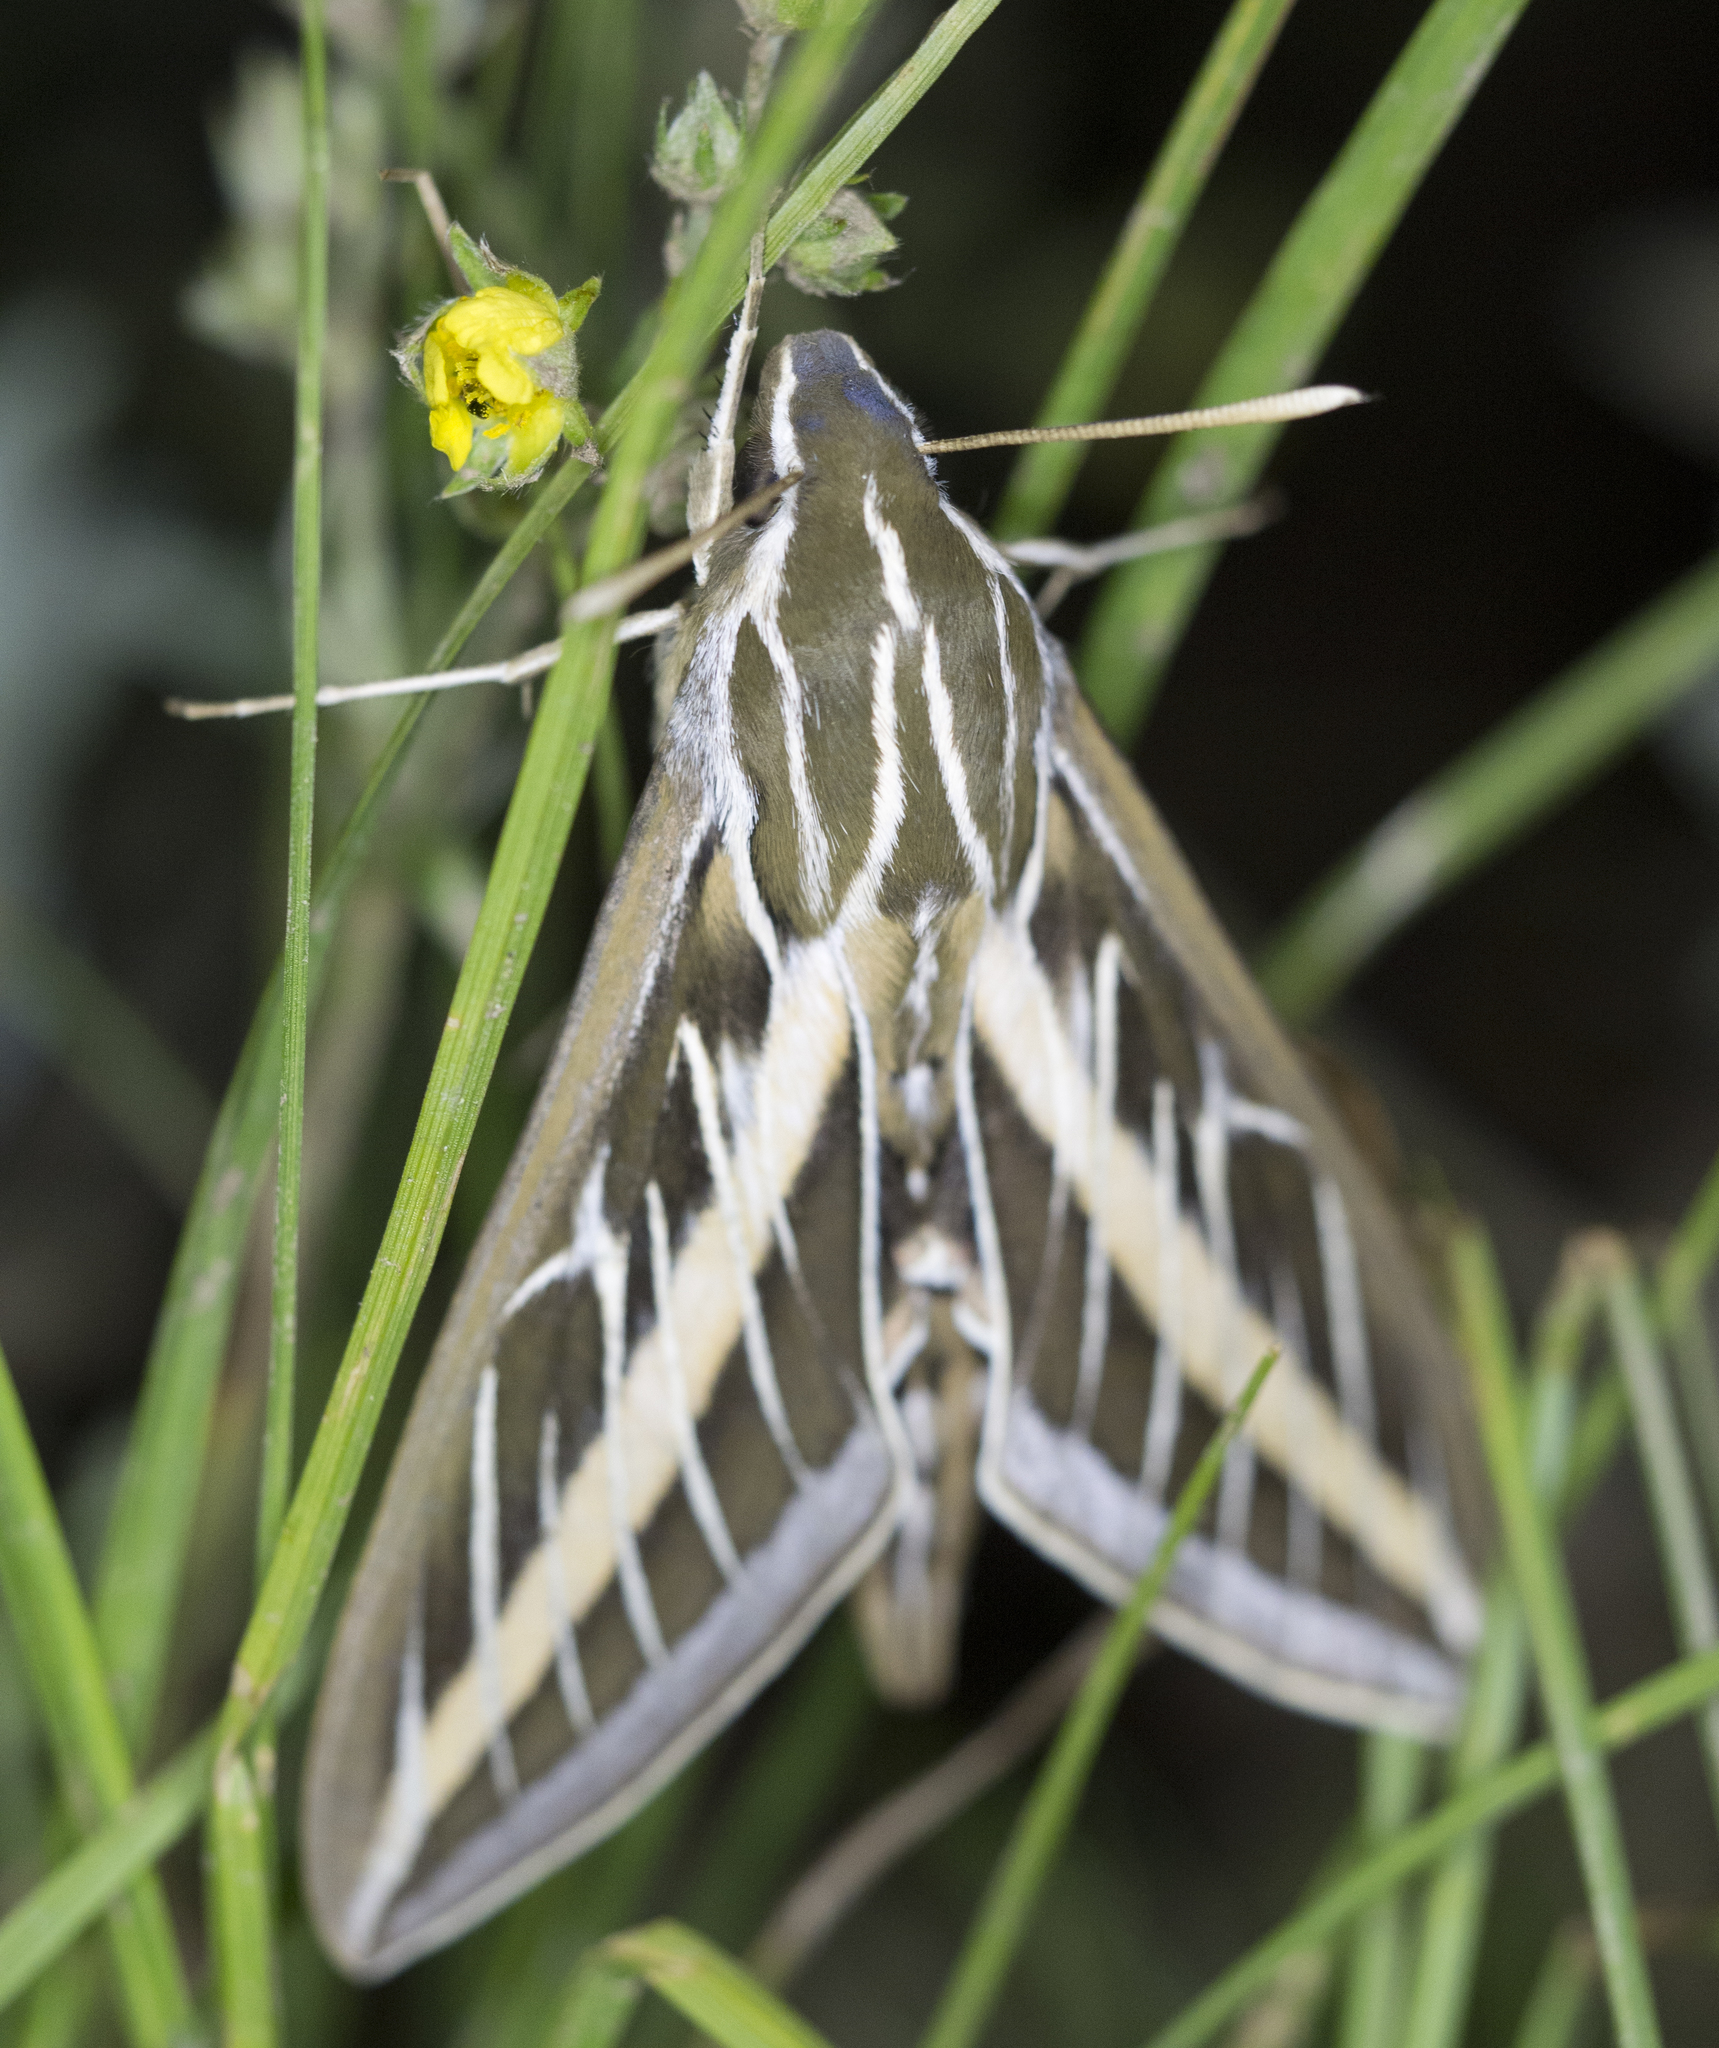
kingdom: Animalia
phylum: Arthropoda
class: Insecta
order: Lepidoptera
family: Sphingidae
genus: Hyles
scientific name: Hyles lineata
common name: White-lined sphinx
